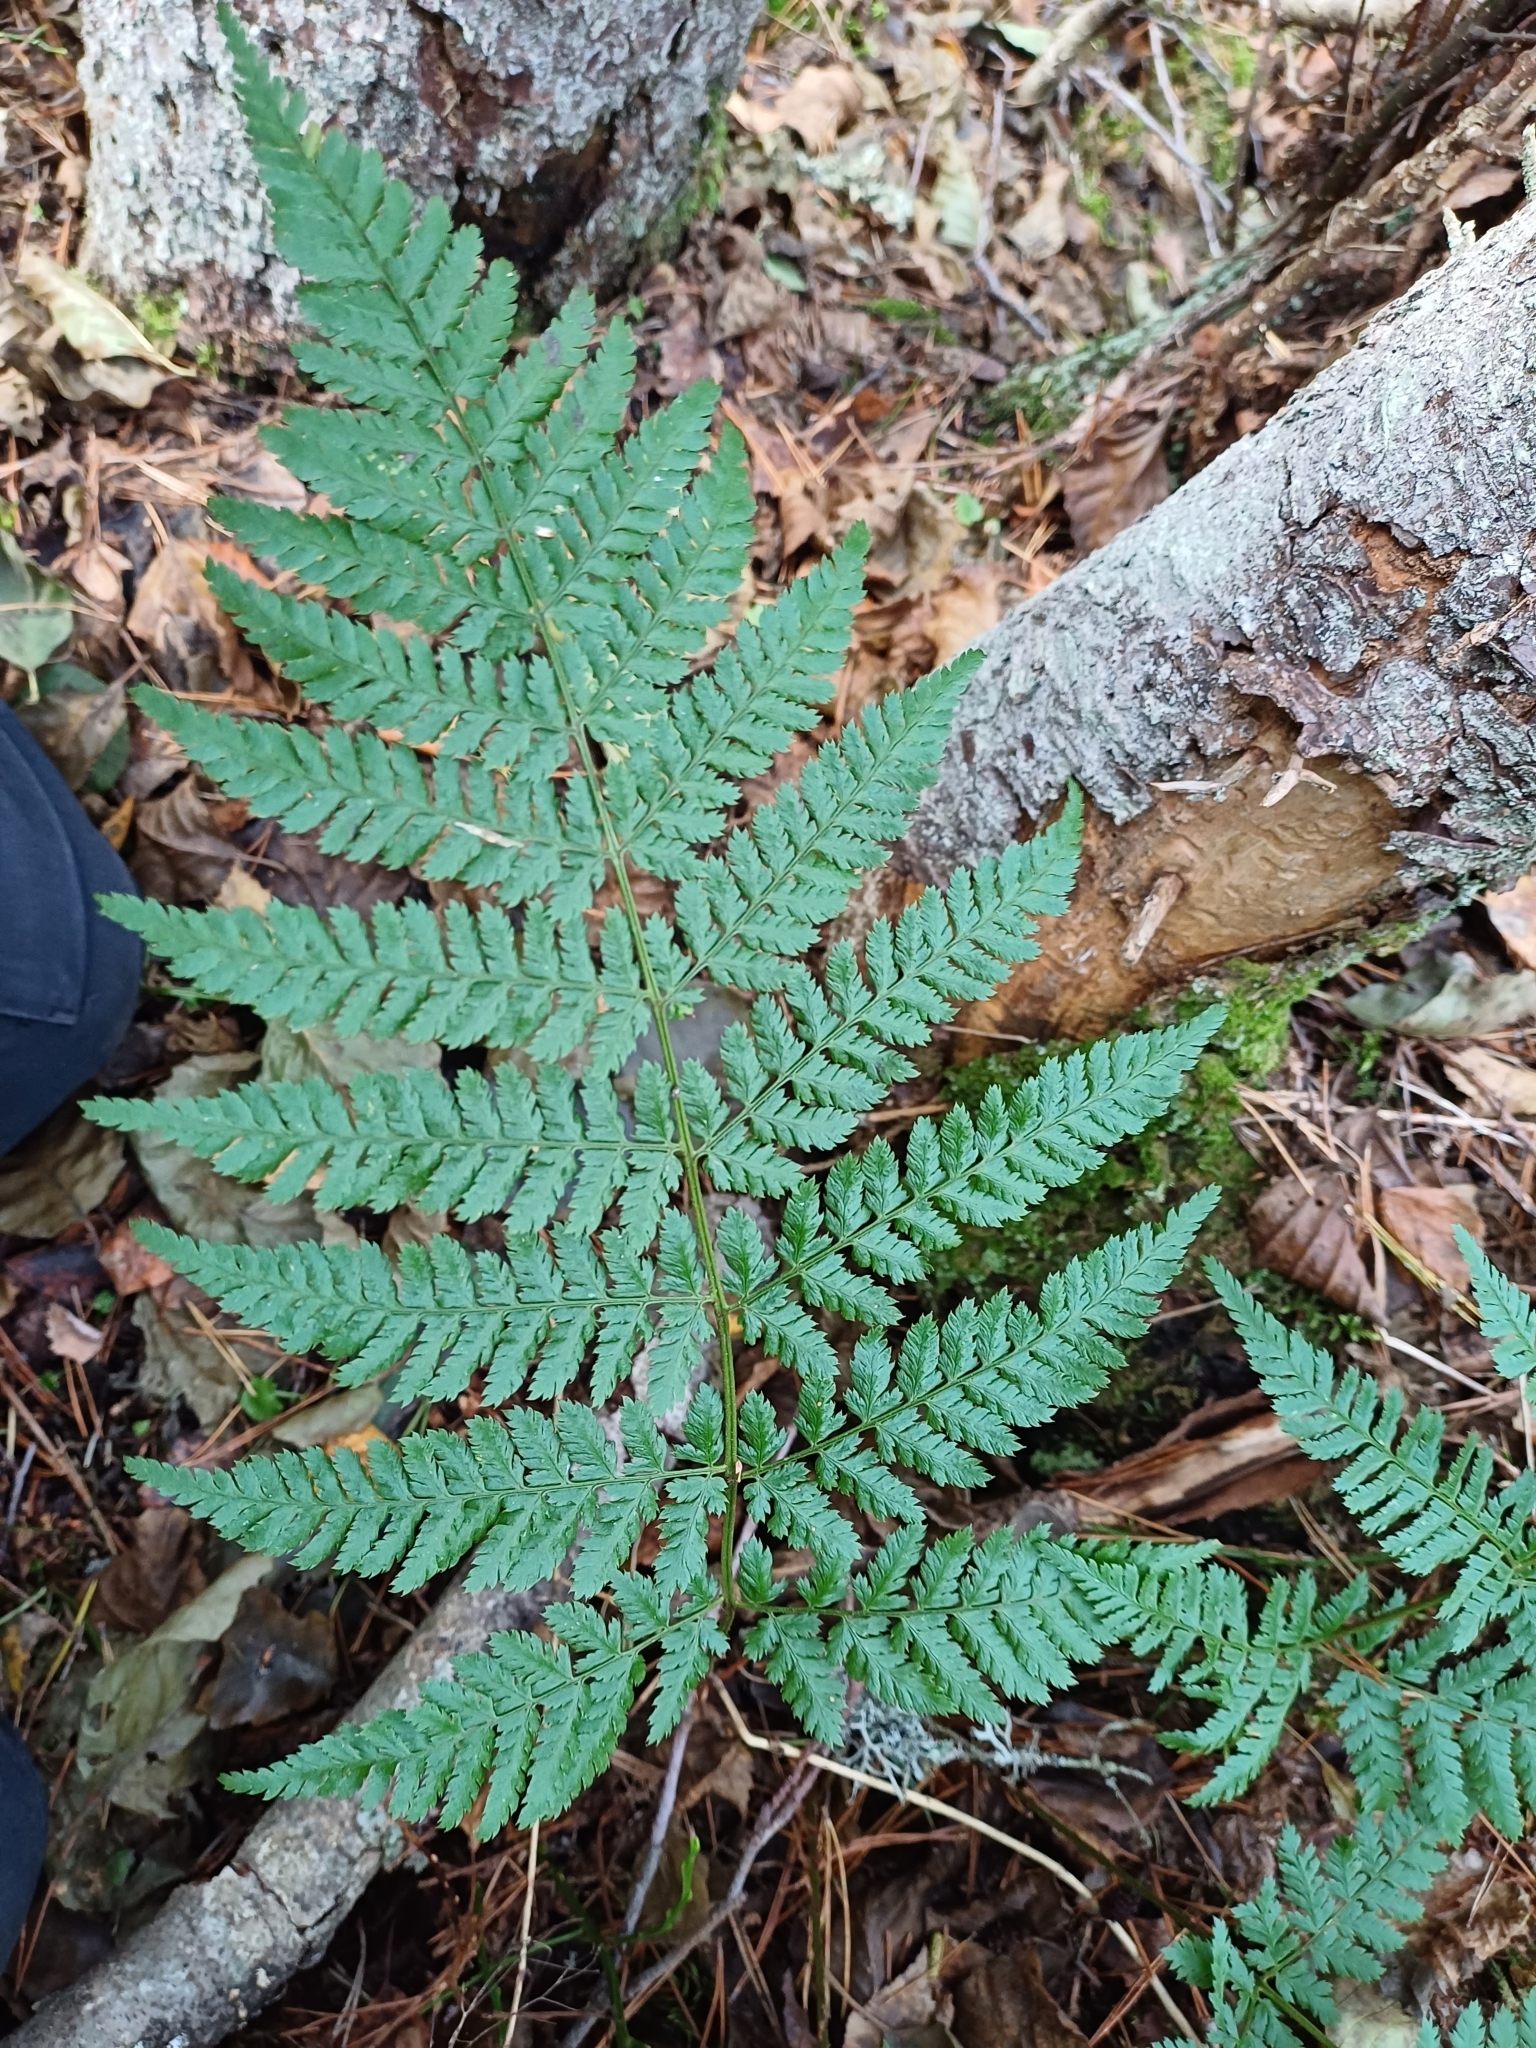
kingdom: Plantae
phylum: Tracheophyta
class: Polypodiopsida
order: Polypodiales
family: Dryopteridaceae
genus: Dryopteris
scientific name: Dryopteris dilatata
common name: Broad buckler-fern
